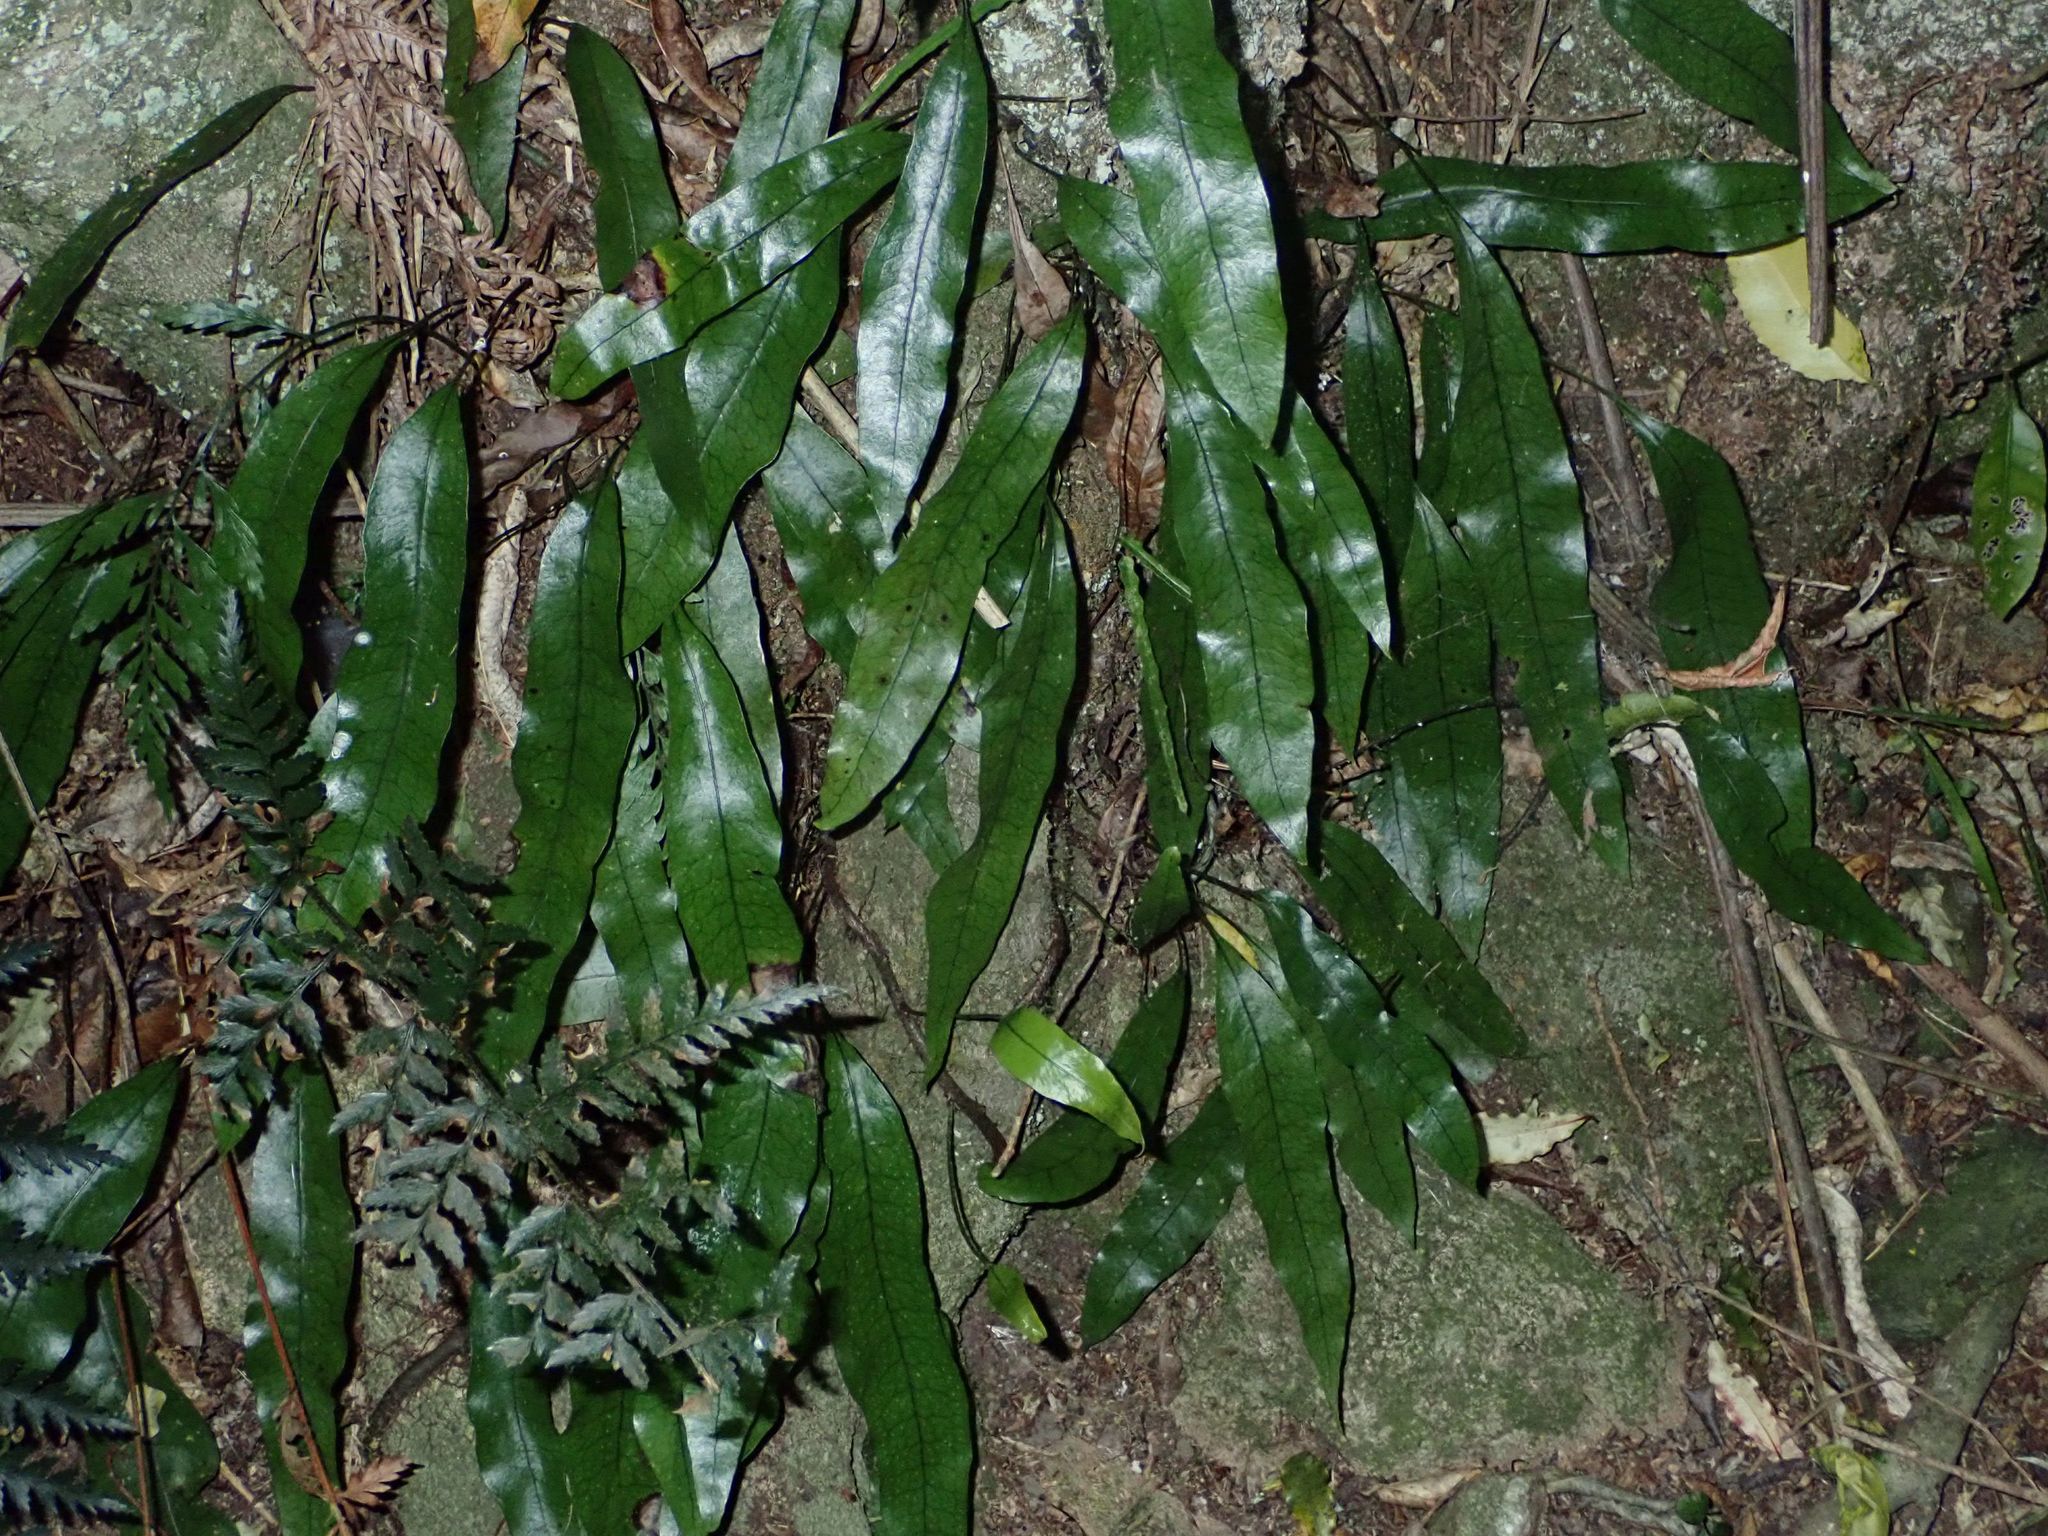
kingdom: Plantae
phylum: Tracheophyta
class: Polypodiopsida
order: Polypodiales
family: Polypodiaceae
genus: Lecanopteris
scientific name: Lecanopteris pustulata
